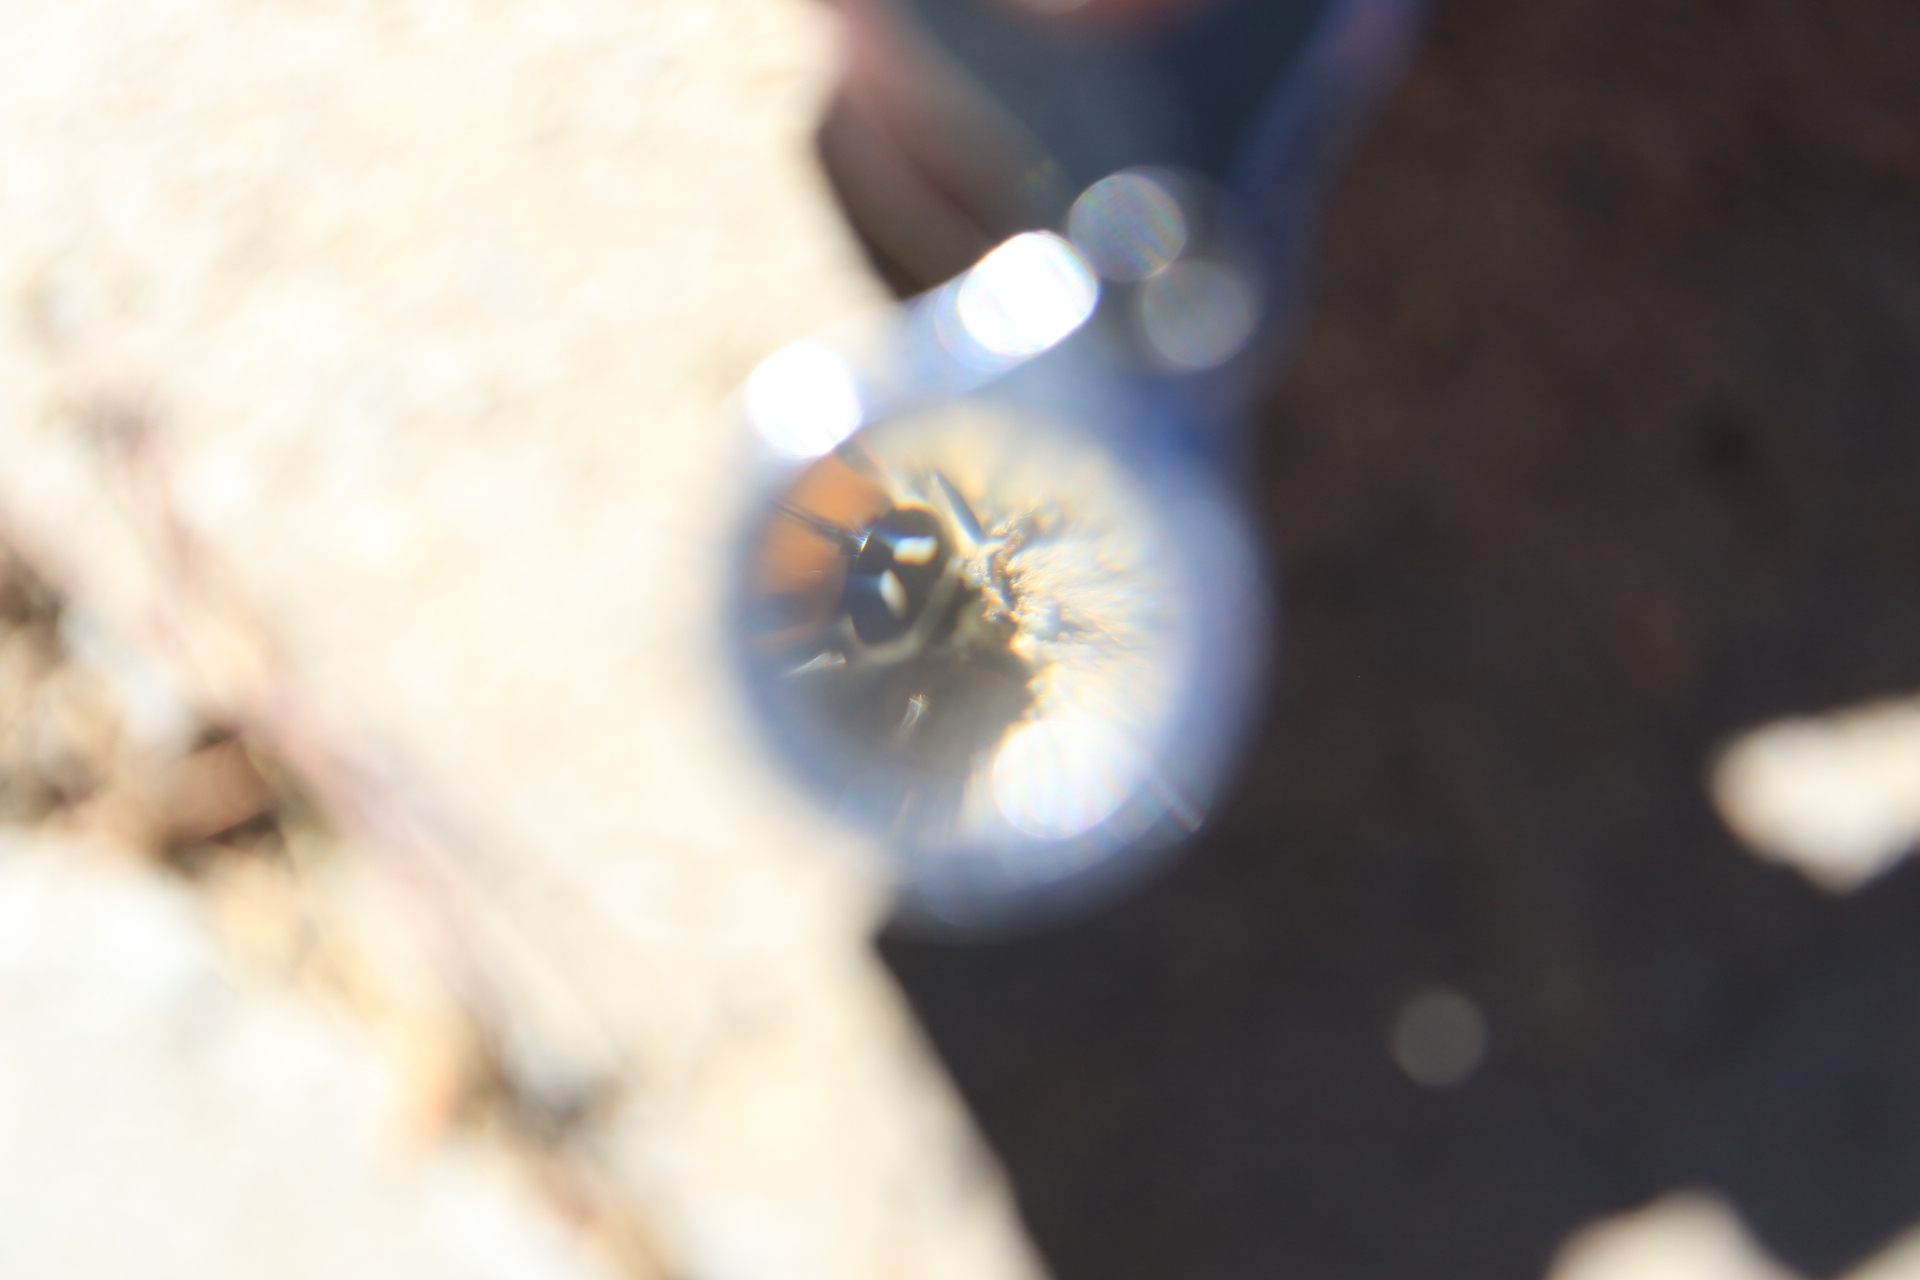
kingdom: Animalia
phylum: Arthropoda
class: Insecta
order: Coleoptera
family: Coccinellidae
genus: Hippodamia
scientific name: Hippodamia convergens
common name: Convergent lady beetle
